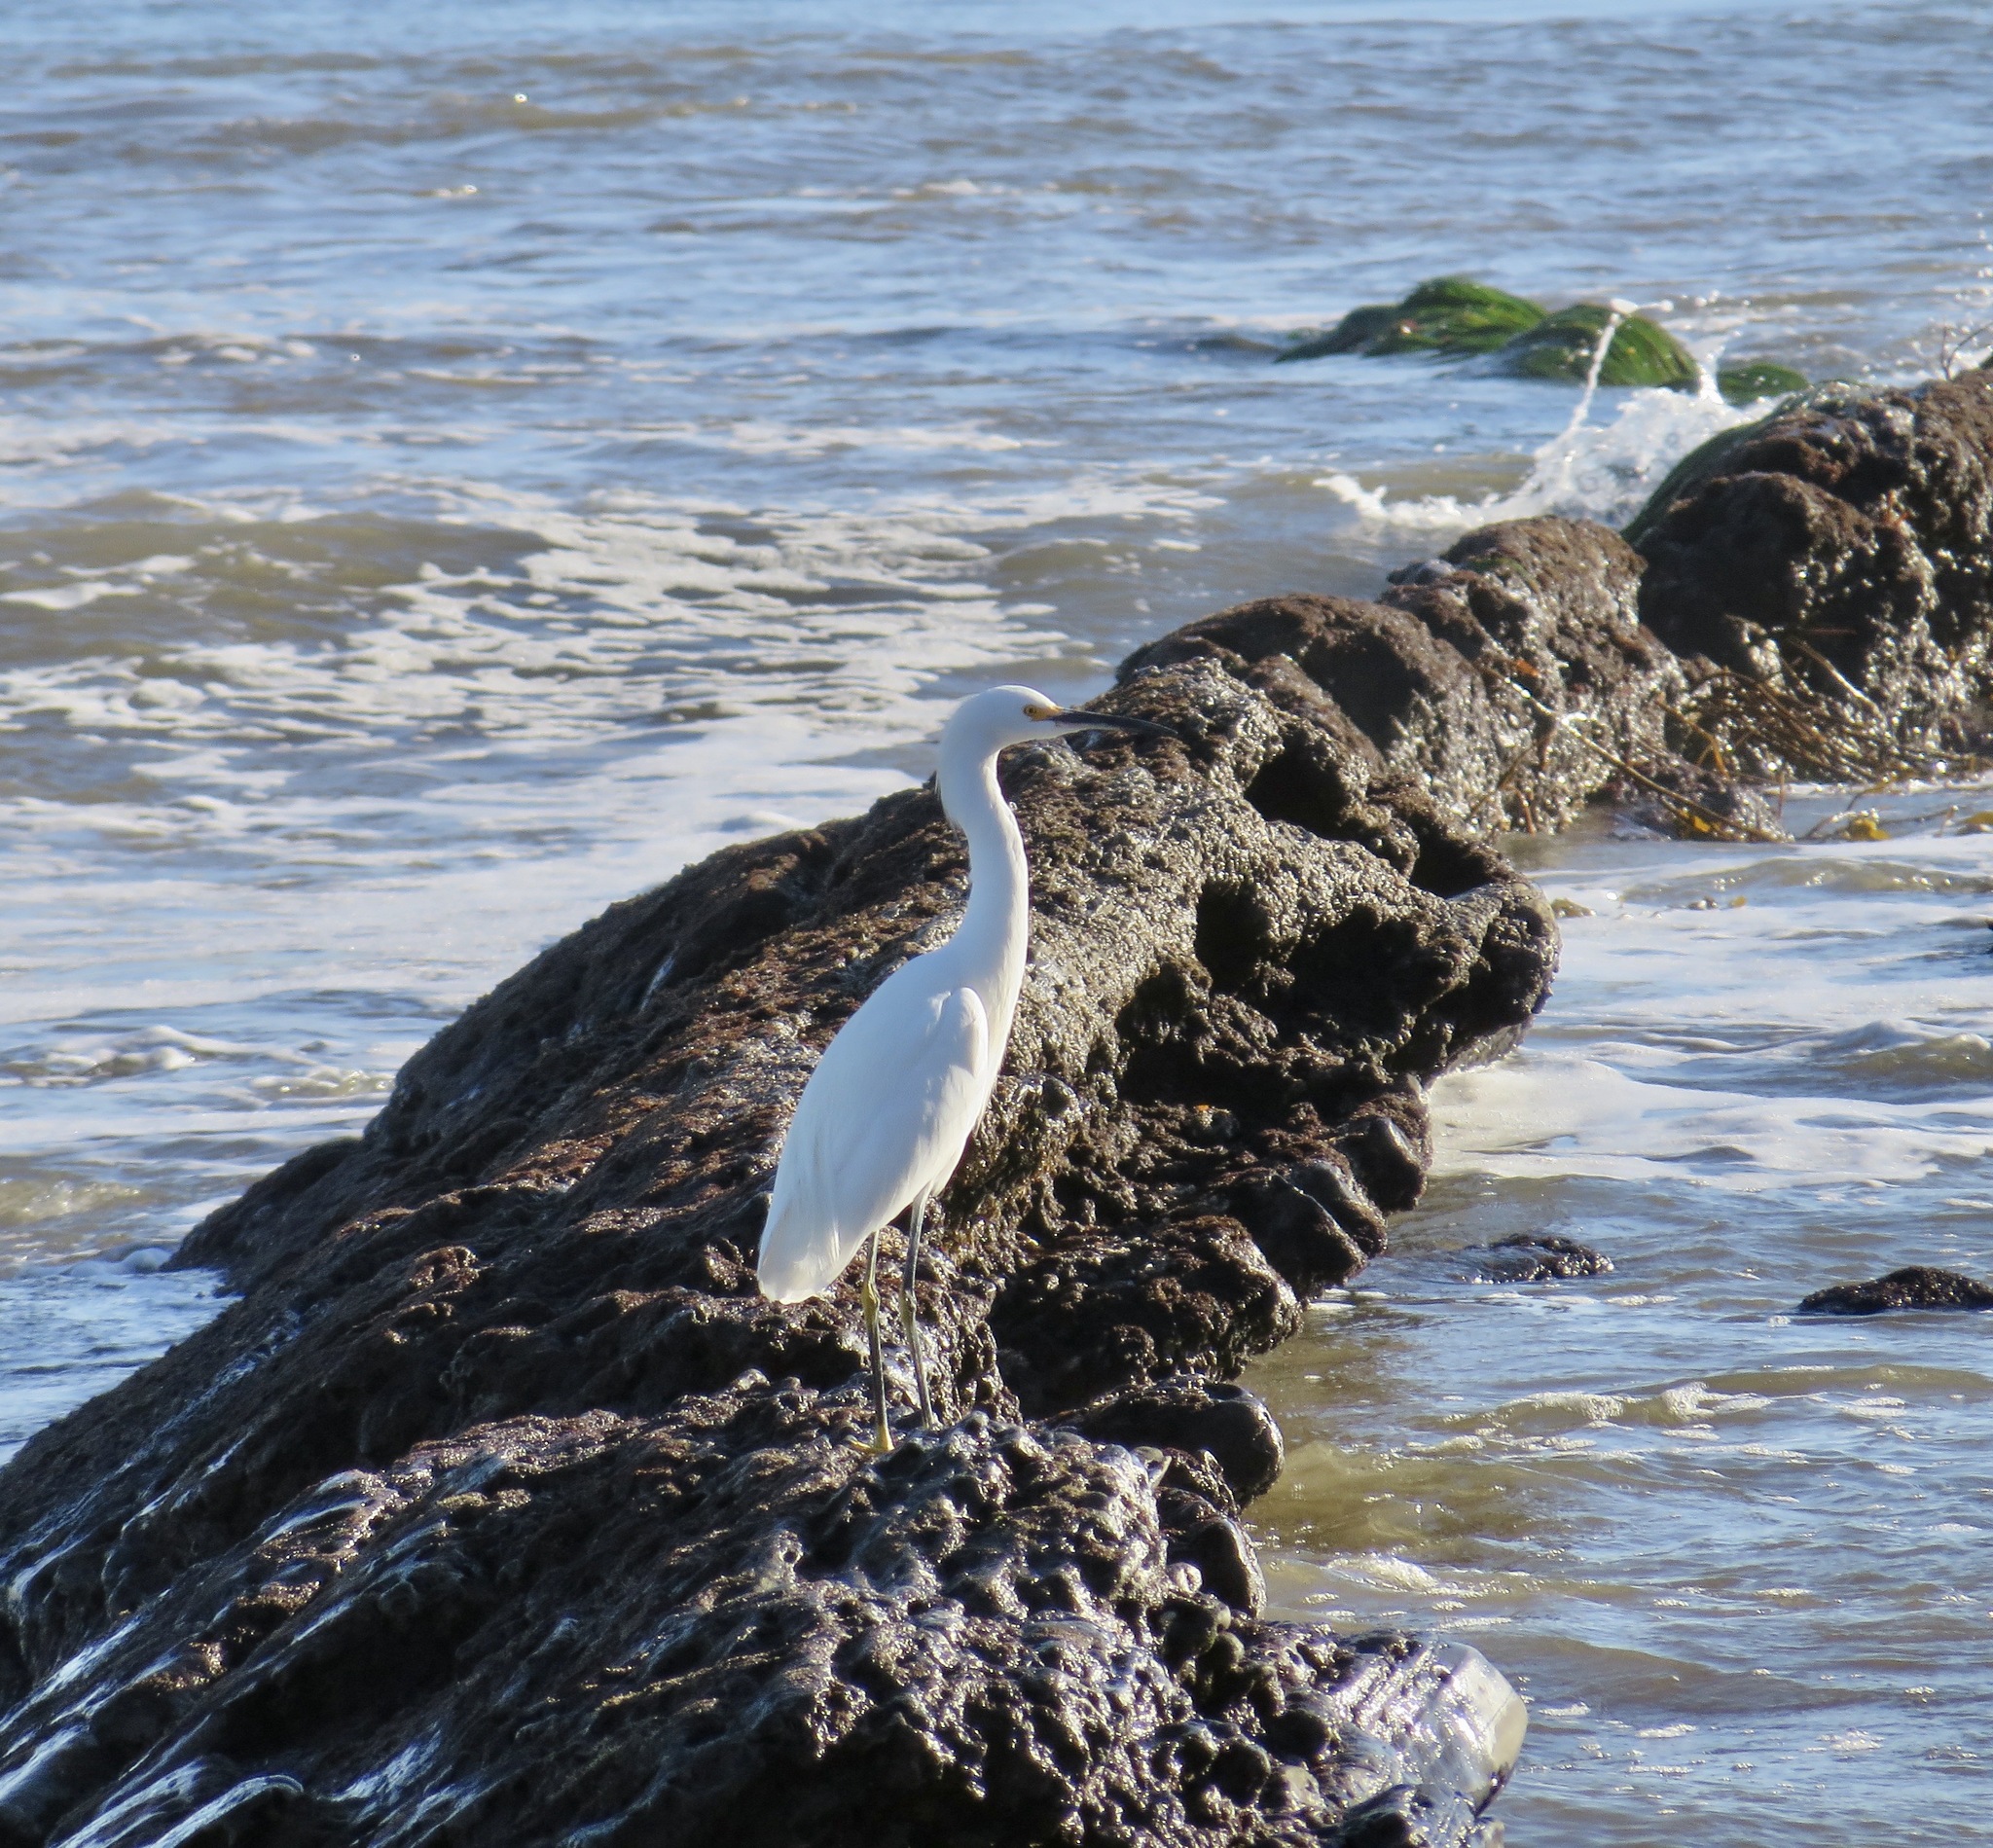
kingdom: Animalia
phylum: Chordata
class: Aves
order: Pelecaniformes
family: Ardeidae
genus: Egretta
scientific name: Egretta thula
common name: Snowy egret
